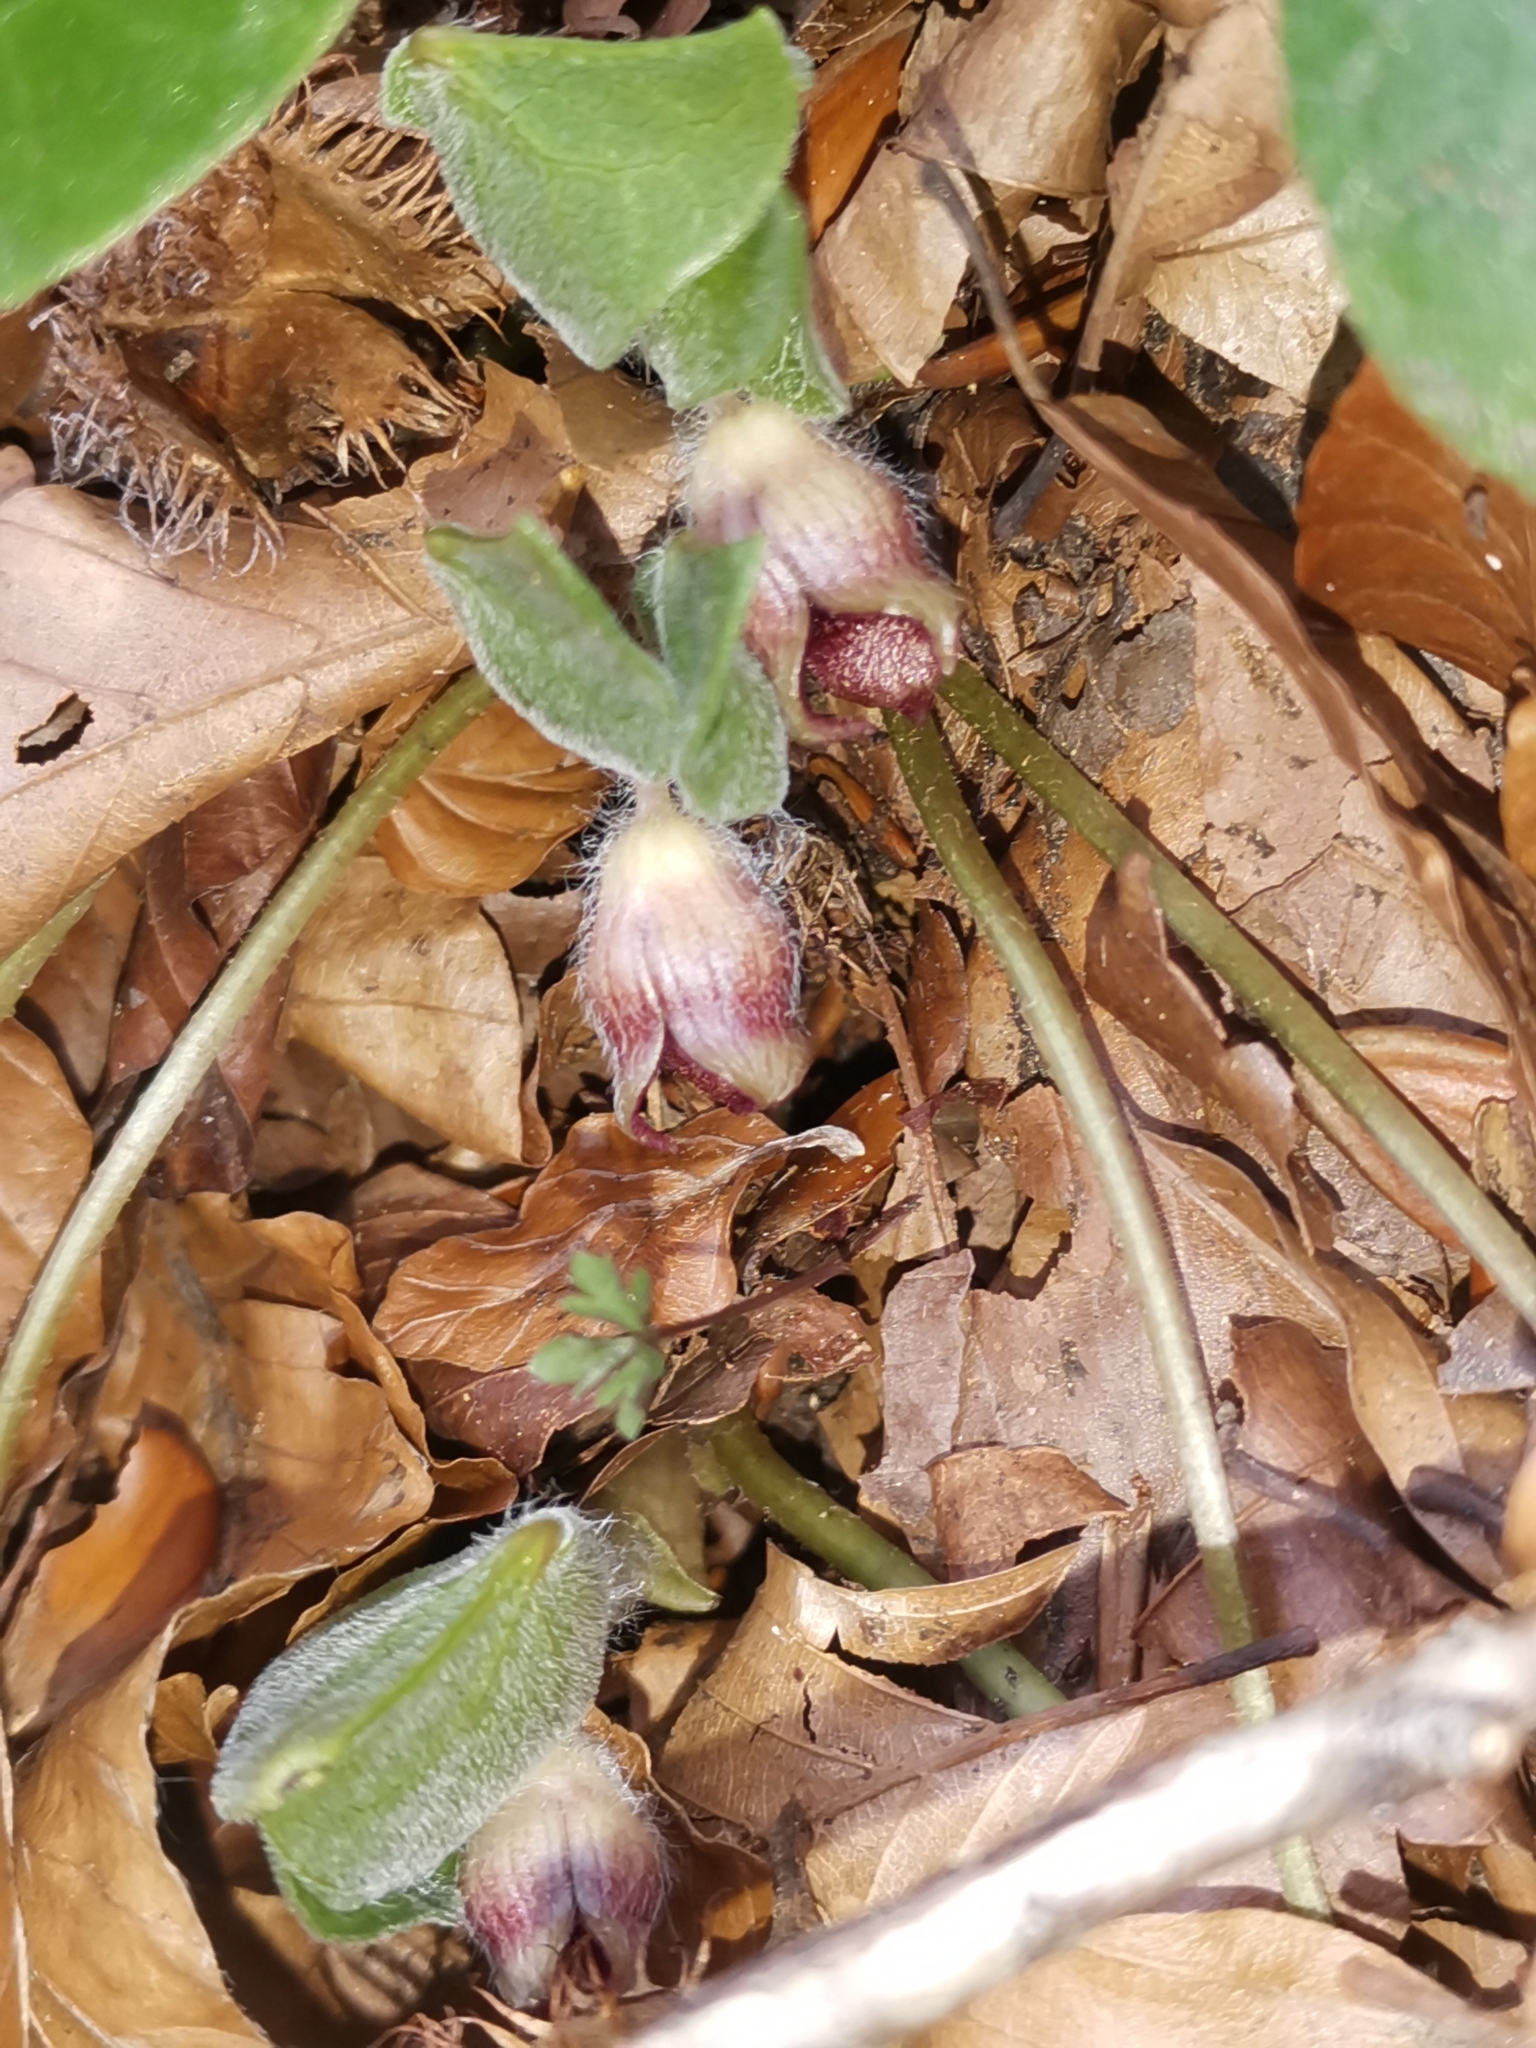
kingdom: Plantae
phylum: Tracheophyta
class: Magnoliopsida
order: Piperales
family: Aristolochiaceae
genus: Asarum
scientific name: Asarum europaeum
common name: Asarabacca
